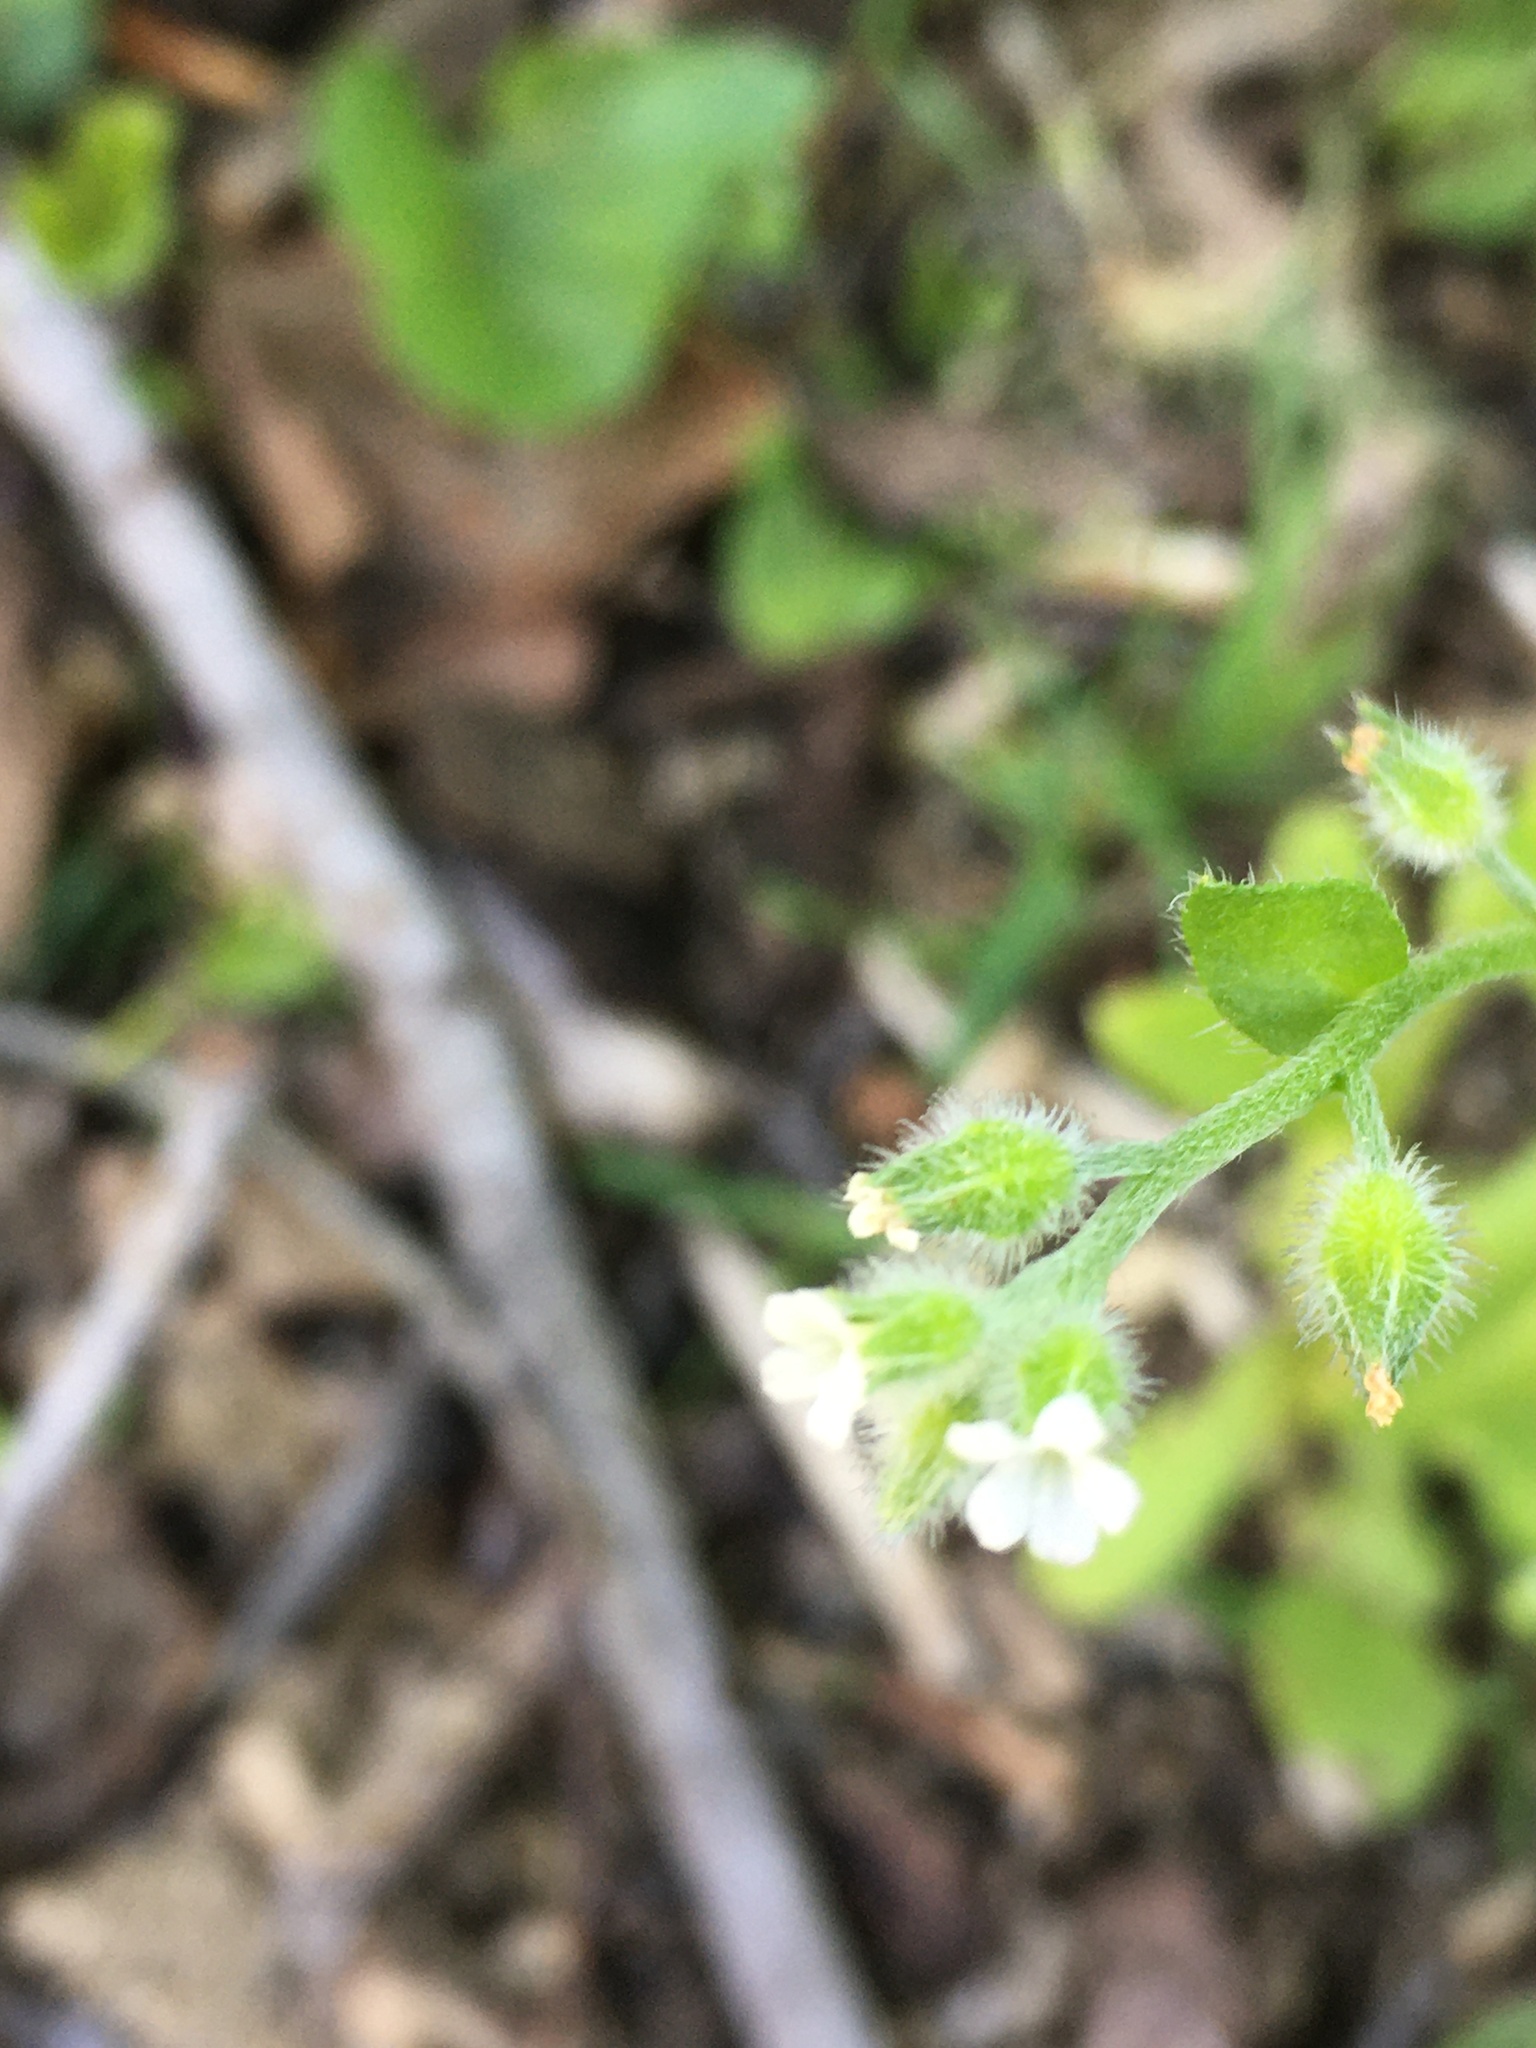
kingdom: Plantae
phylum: Tracheophyta
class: Magnoliopsida
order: Boraginales
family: Boraginaceae
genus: Myosotis
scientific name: Myosotis macrosperma
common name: Large-seed forget-me-not
